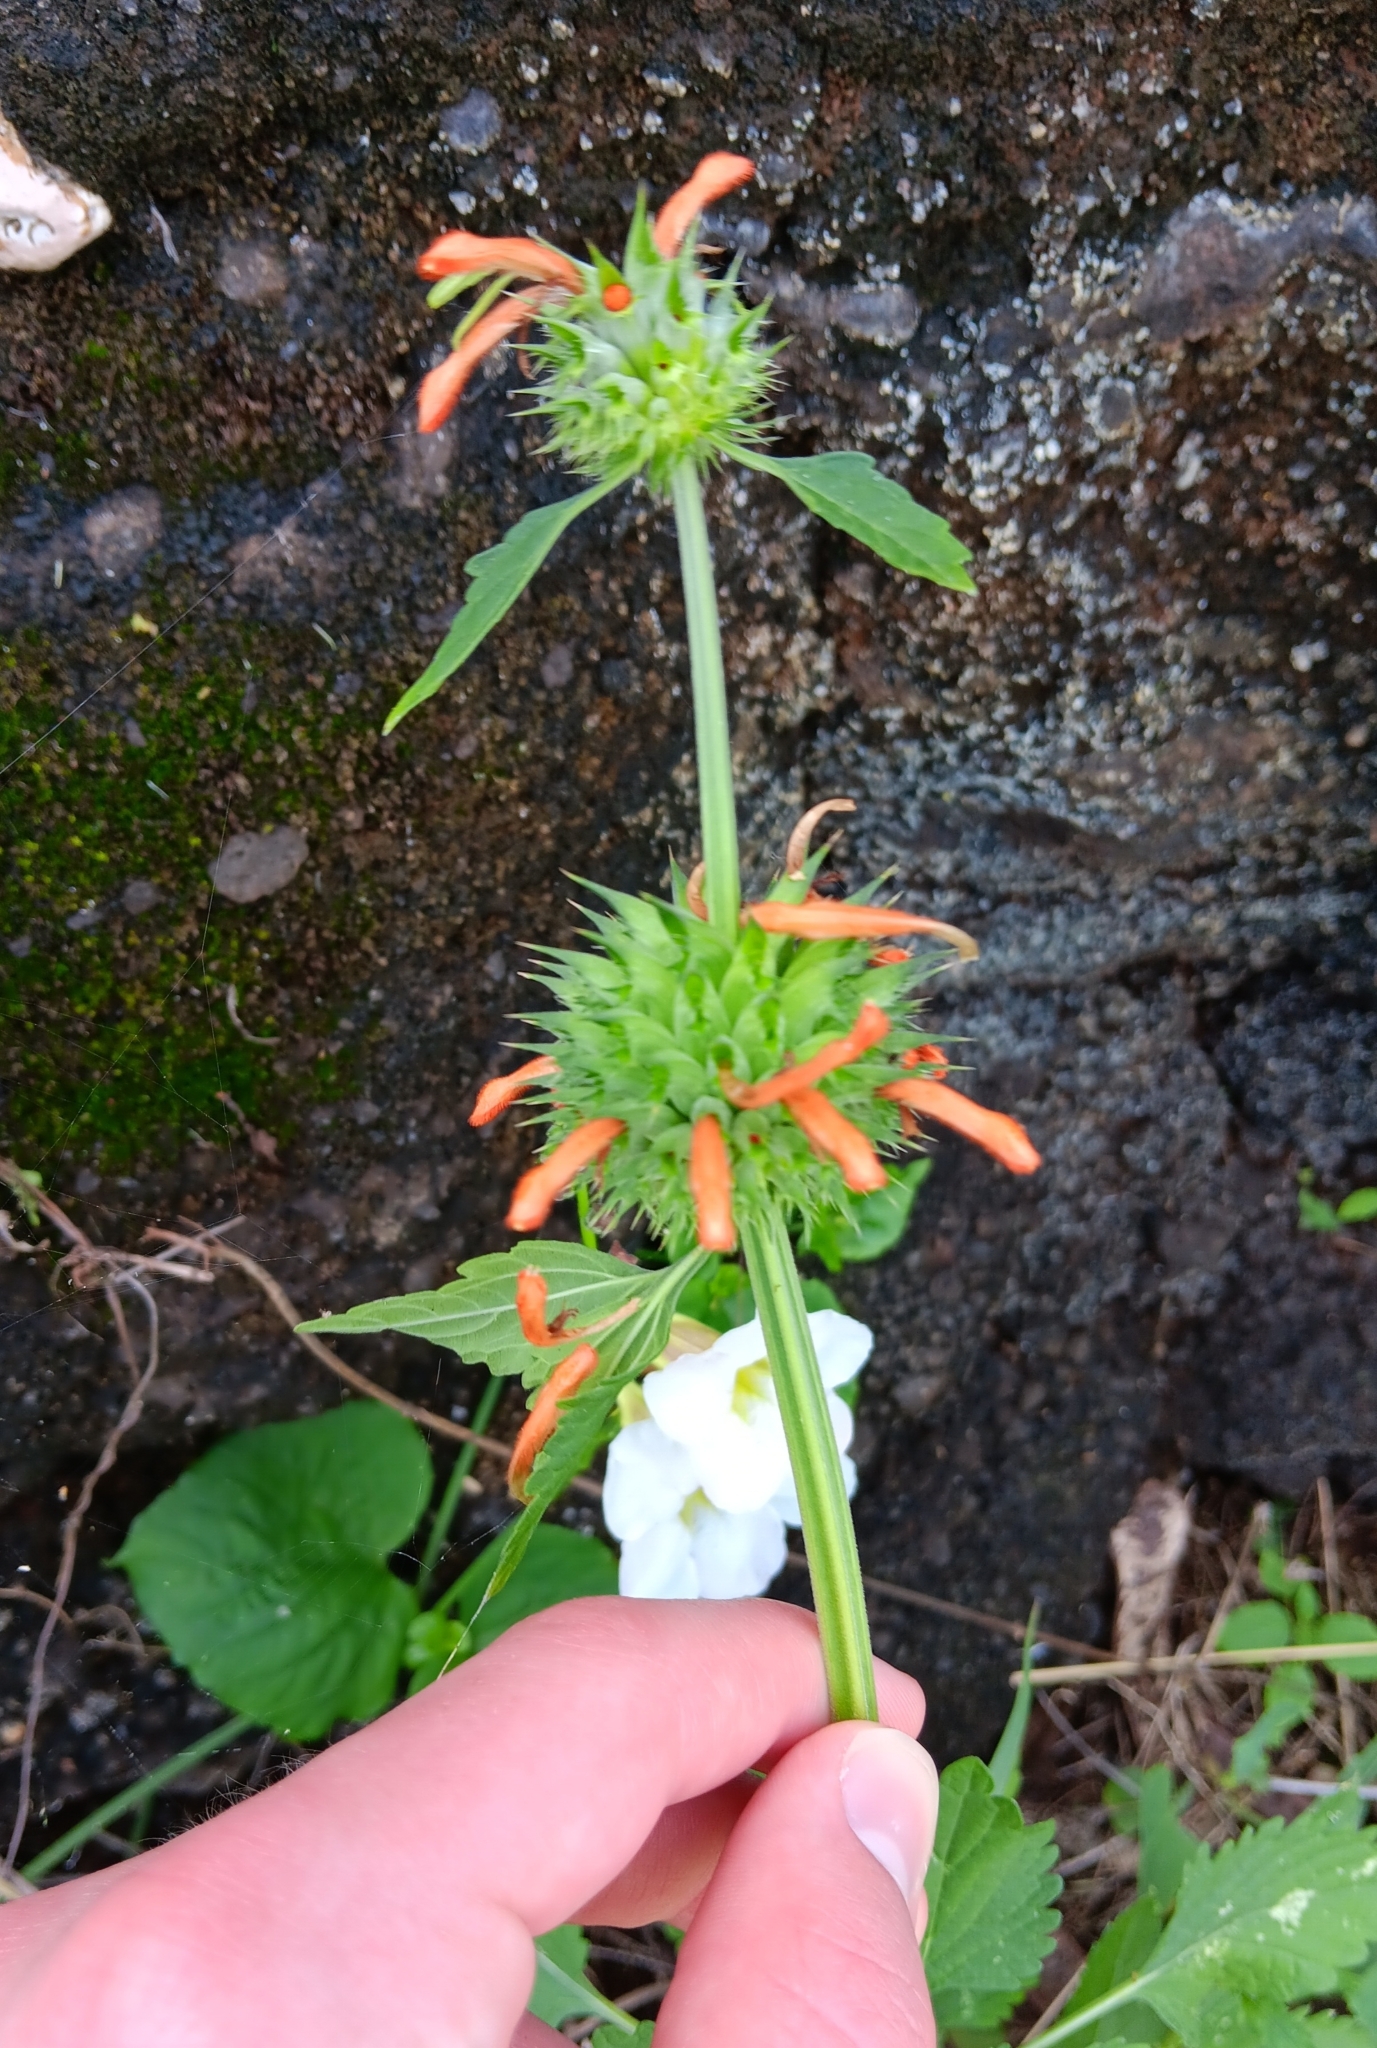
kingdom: Plantae
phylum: Tracheophyta
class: Magnoliopsida
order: Lamiales
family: Lamiaceae
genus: Leonotis
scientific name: Leonotis nepetifolia
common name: Christmas candlestick
